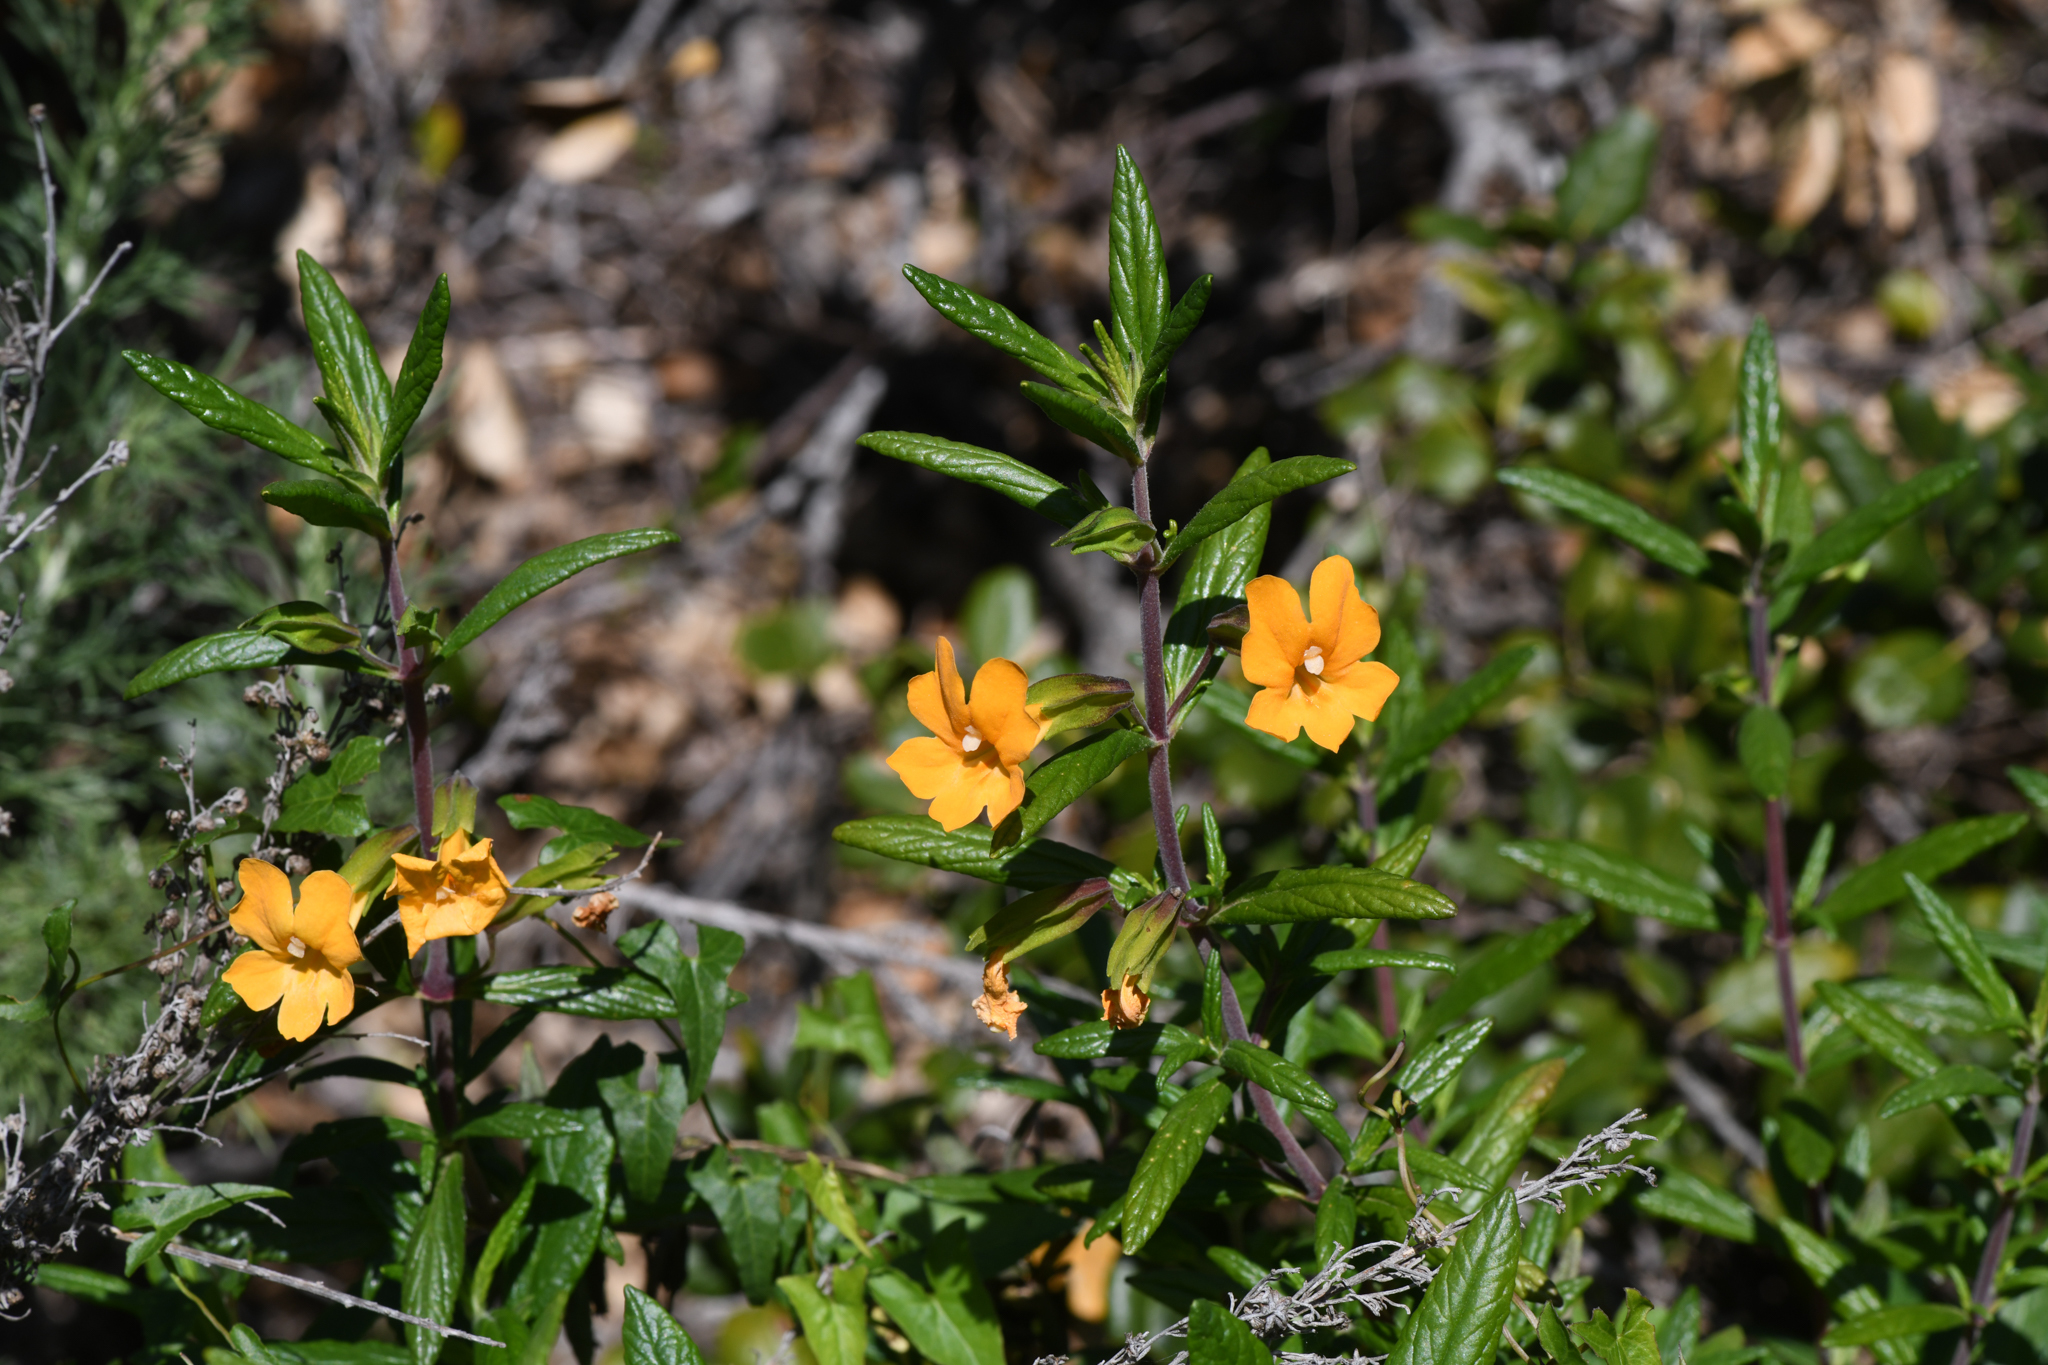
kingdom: Plantae
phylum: Tracheophyta
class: Magnoliopsida
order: Lamiales
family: Phrymaceae
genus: Diplacus
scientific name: Diplacus aurantiacus
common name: Bush monkey-flower
